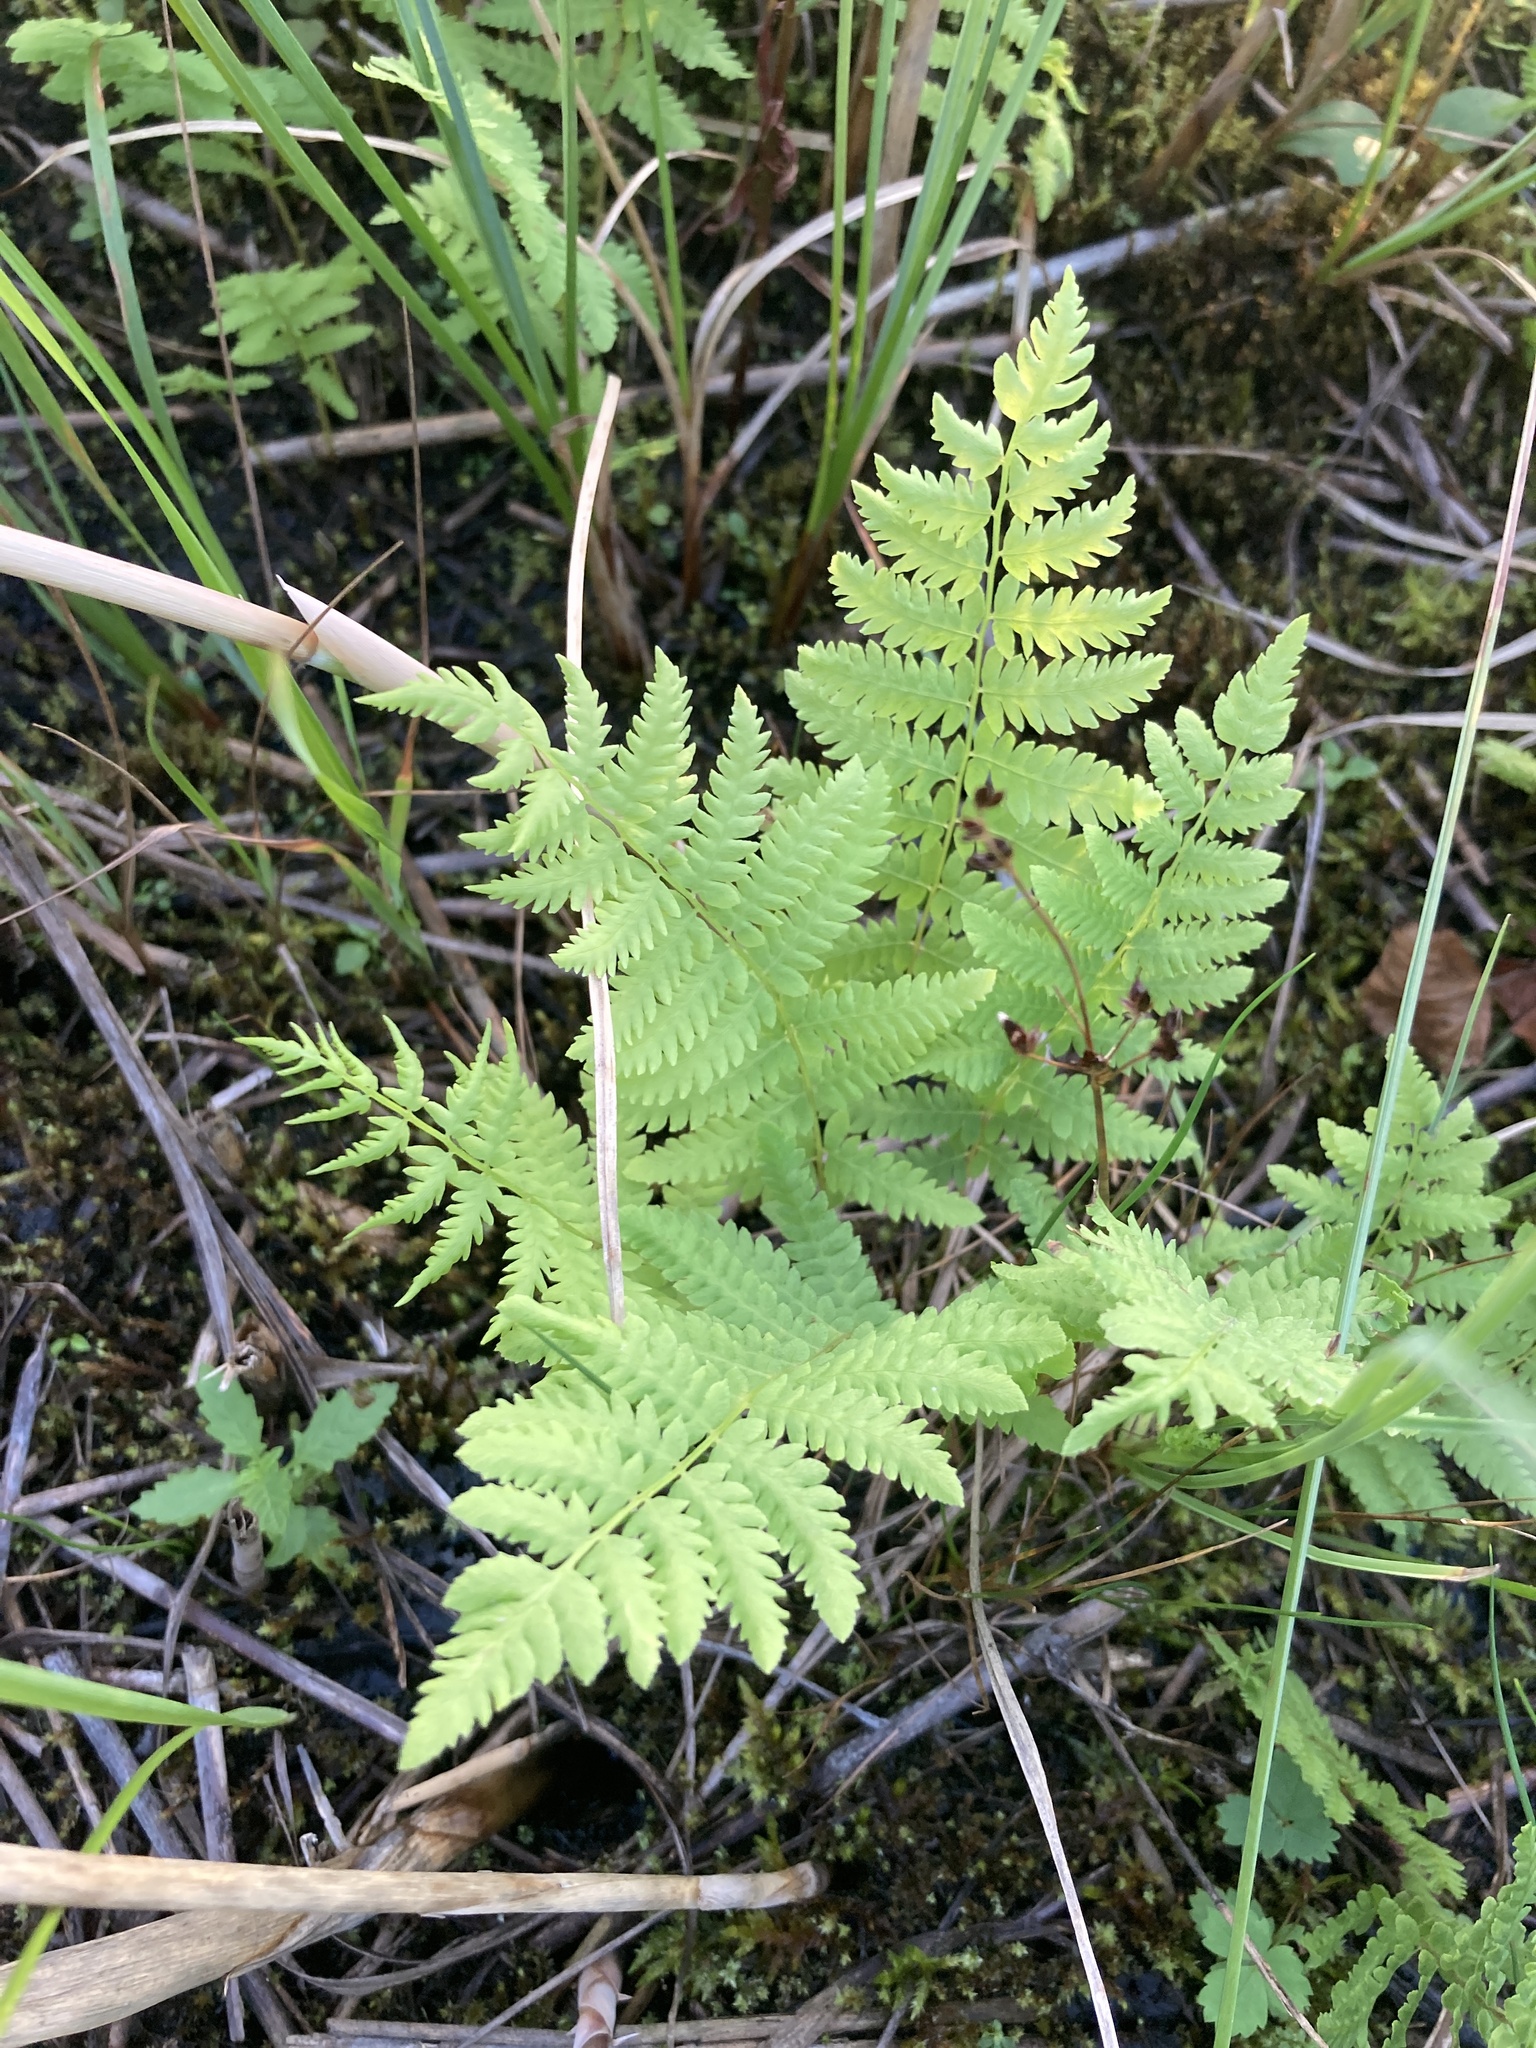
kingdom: Plantae
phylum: Tracheophyta
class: Polypodiopsida
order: Polypodiales
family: Thelypteridaceae
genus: Thelypteris
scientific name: Thelypteris palustris
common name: Marsh fern
